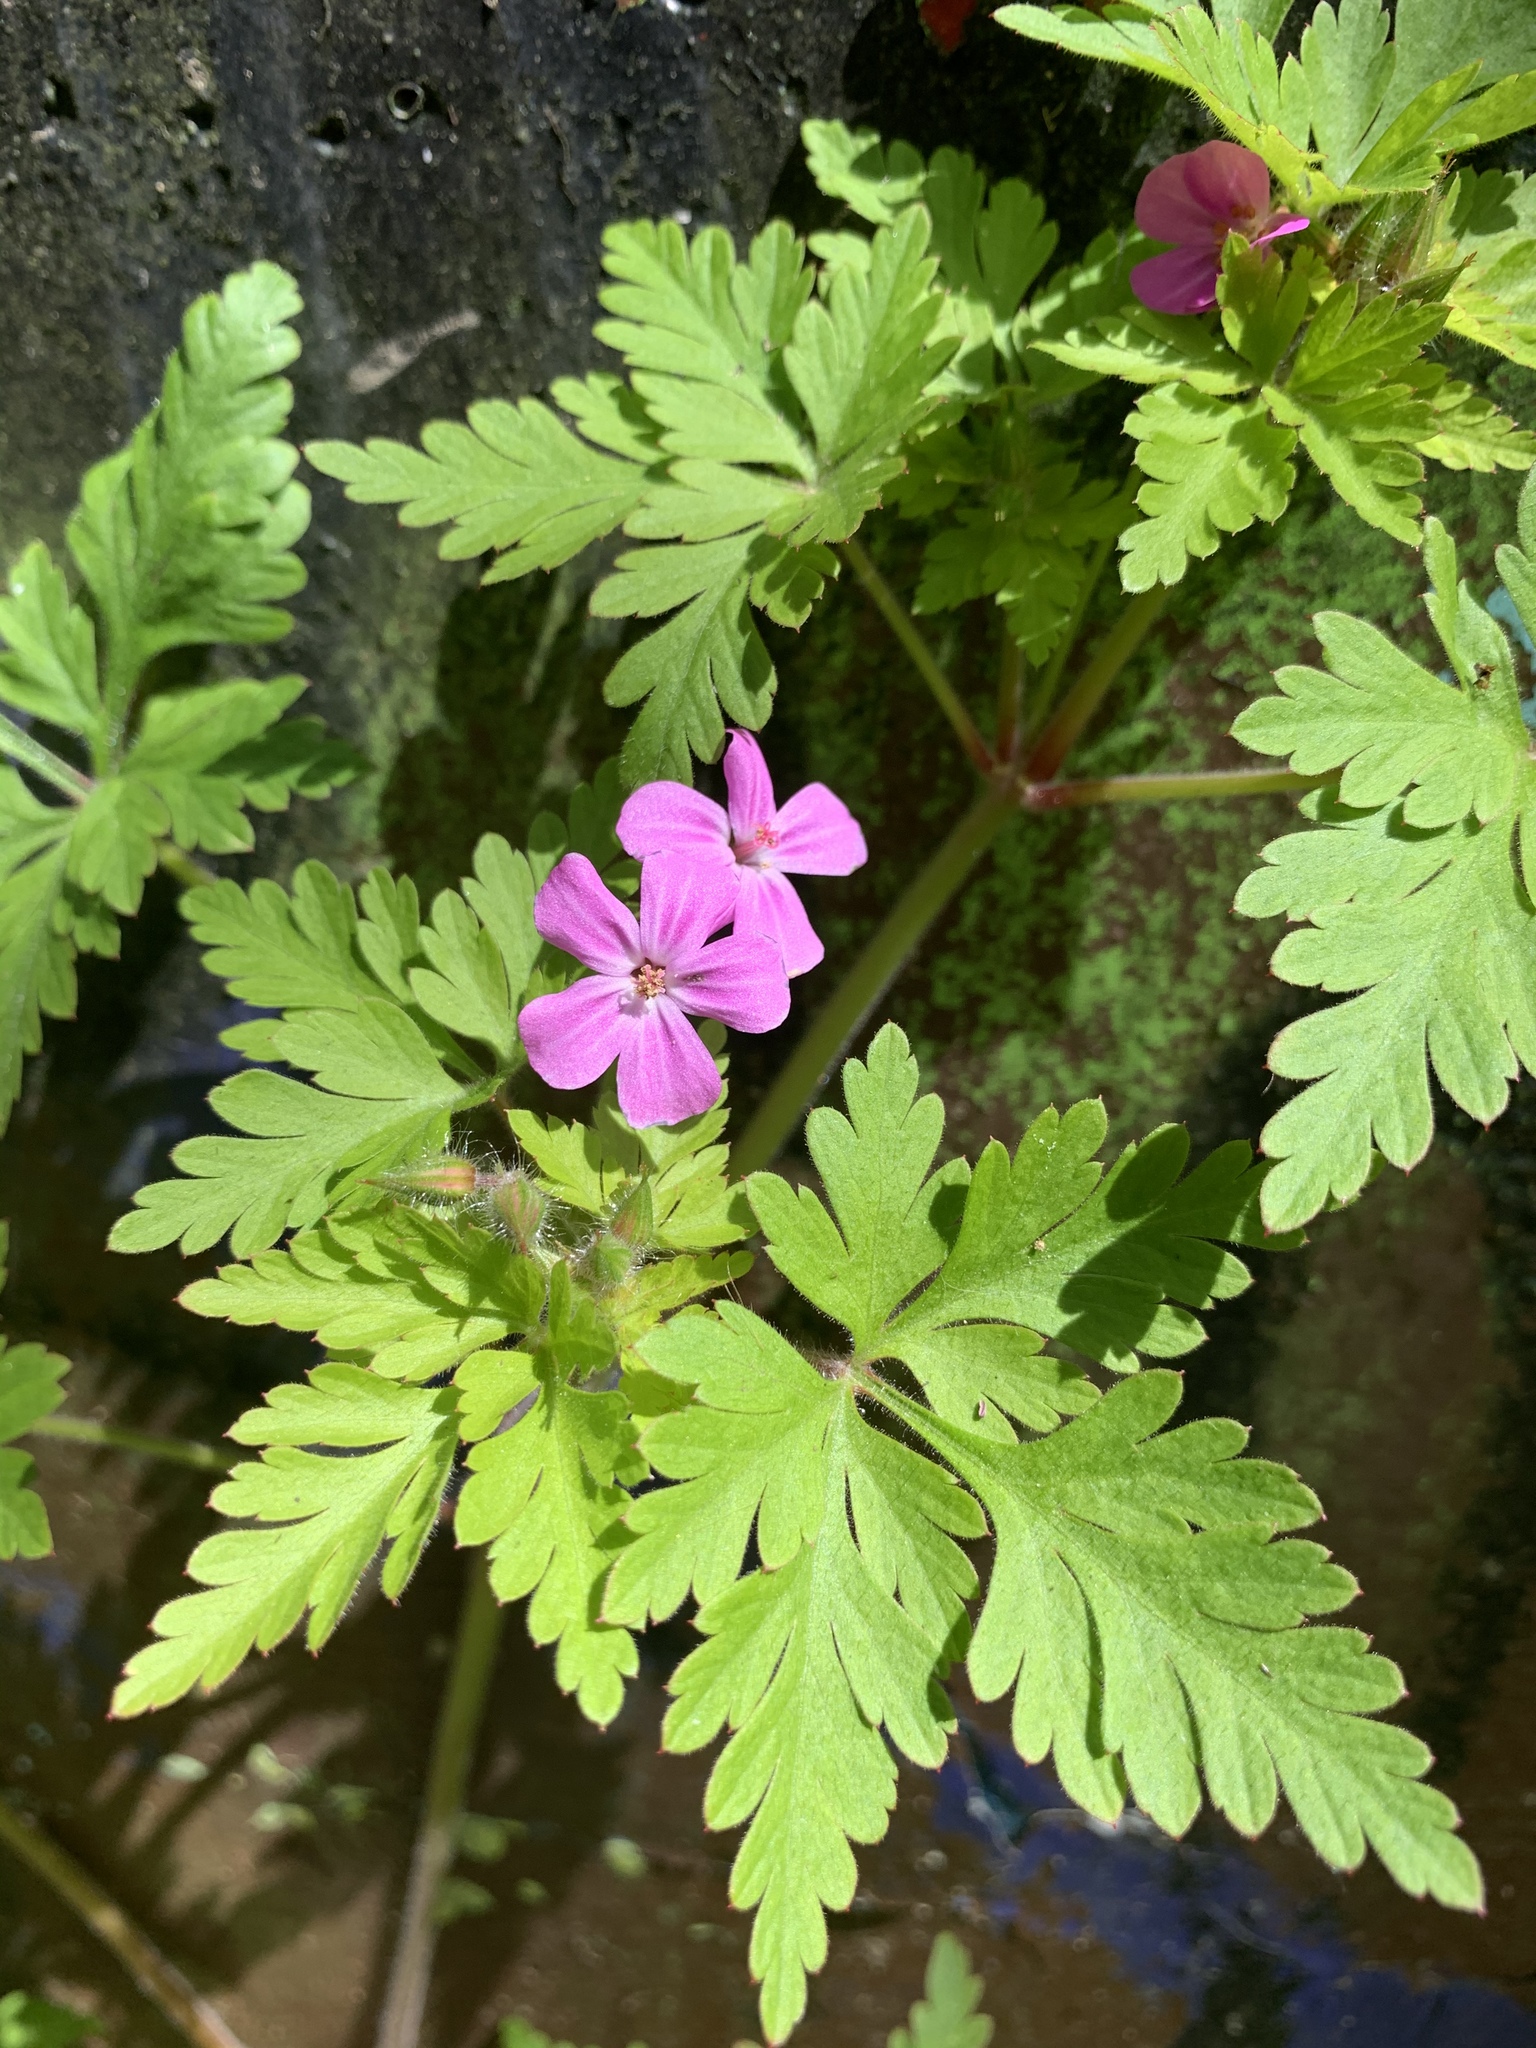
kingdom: Plantae
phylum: Tracheophyta
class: Magnoliopsida
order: Geraniales
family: Geraniaceae
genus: Geranium
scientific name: Geranium robertianum
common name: Herb-robert
